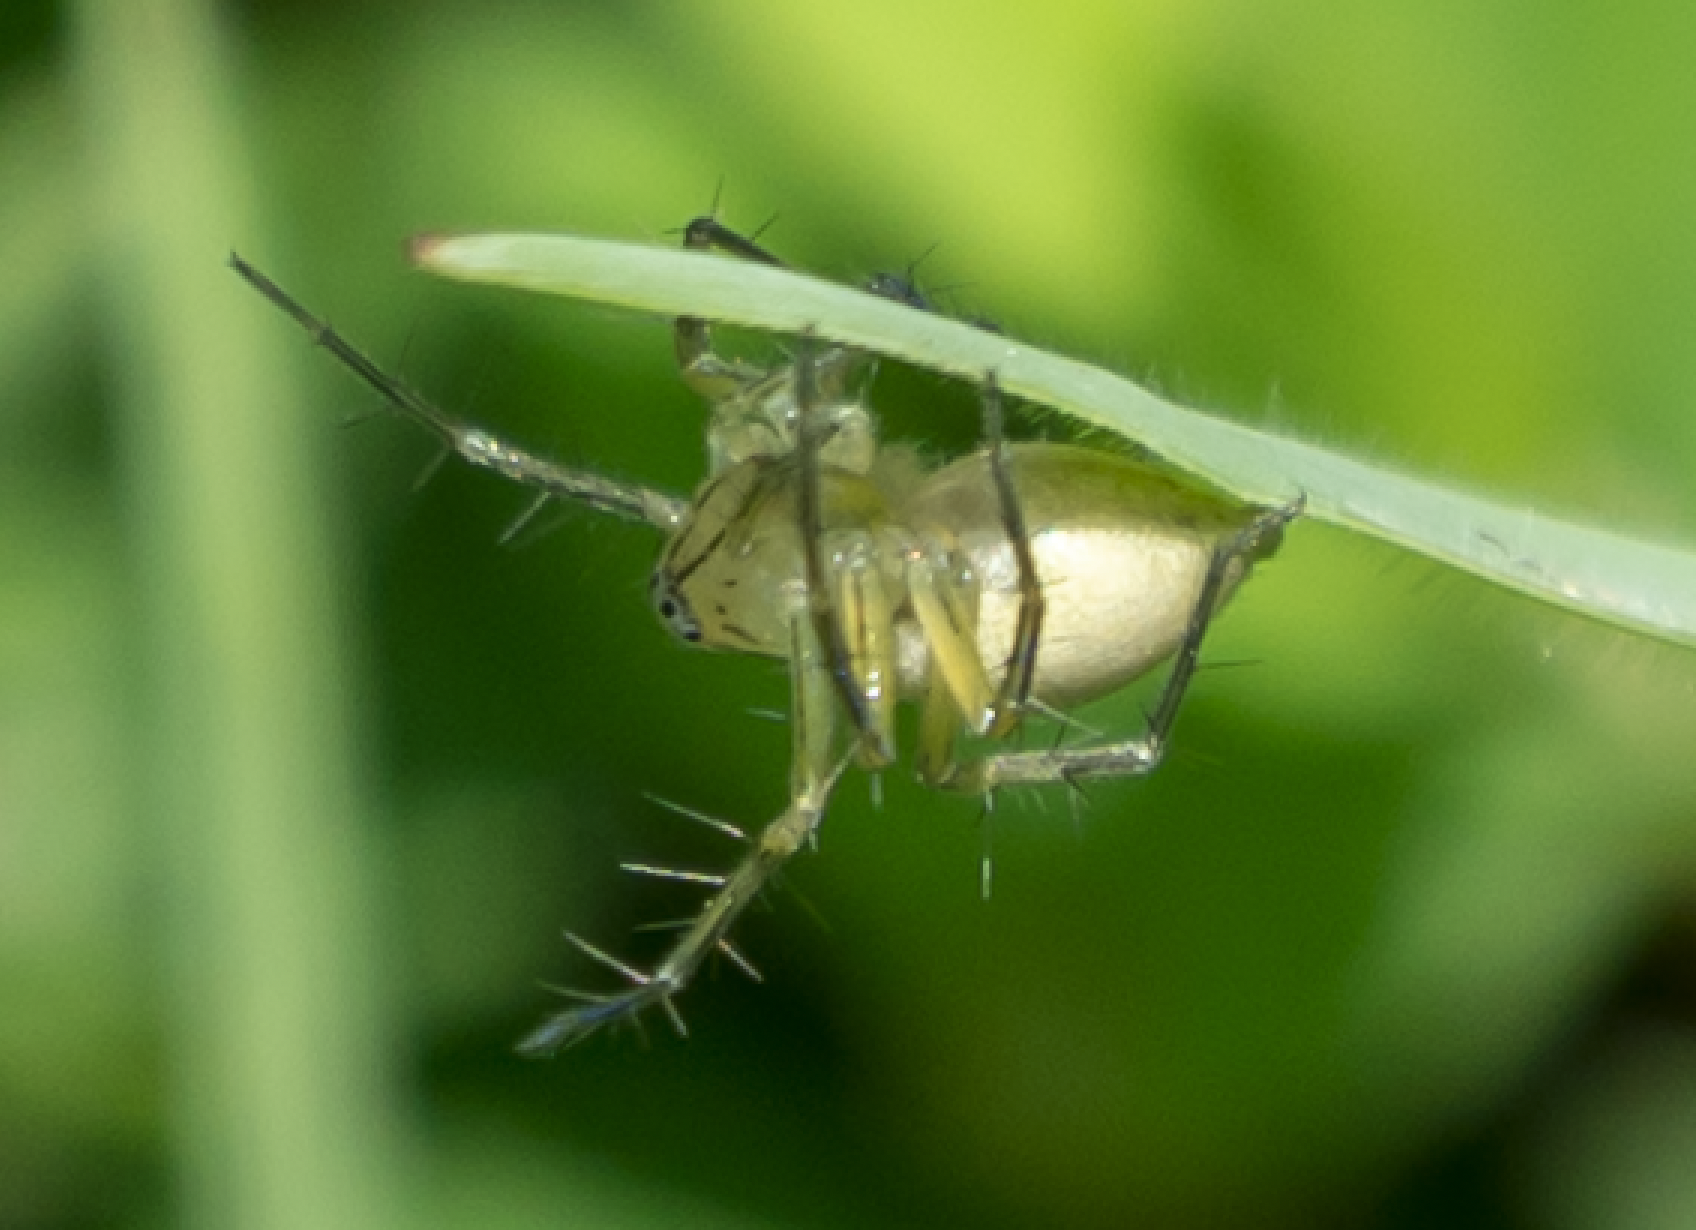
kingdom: Animalia
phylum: Arthropoda
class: Arachnida
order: Araneae
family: Oxyopidae
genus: Oxyopes
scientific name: Oxyopes salticus
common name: Lynx spiders
